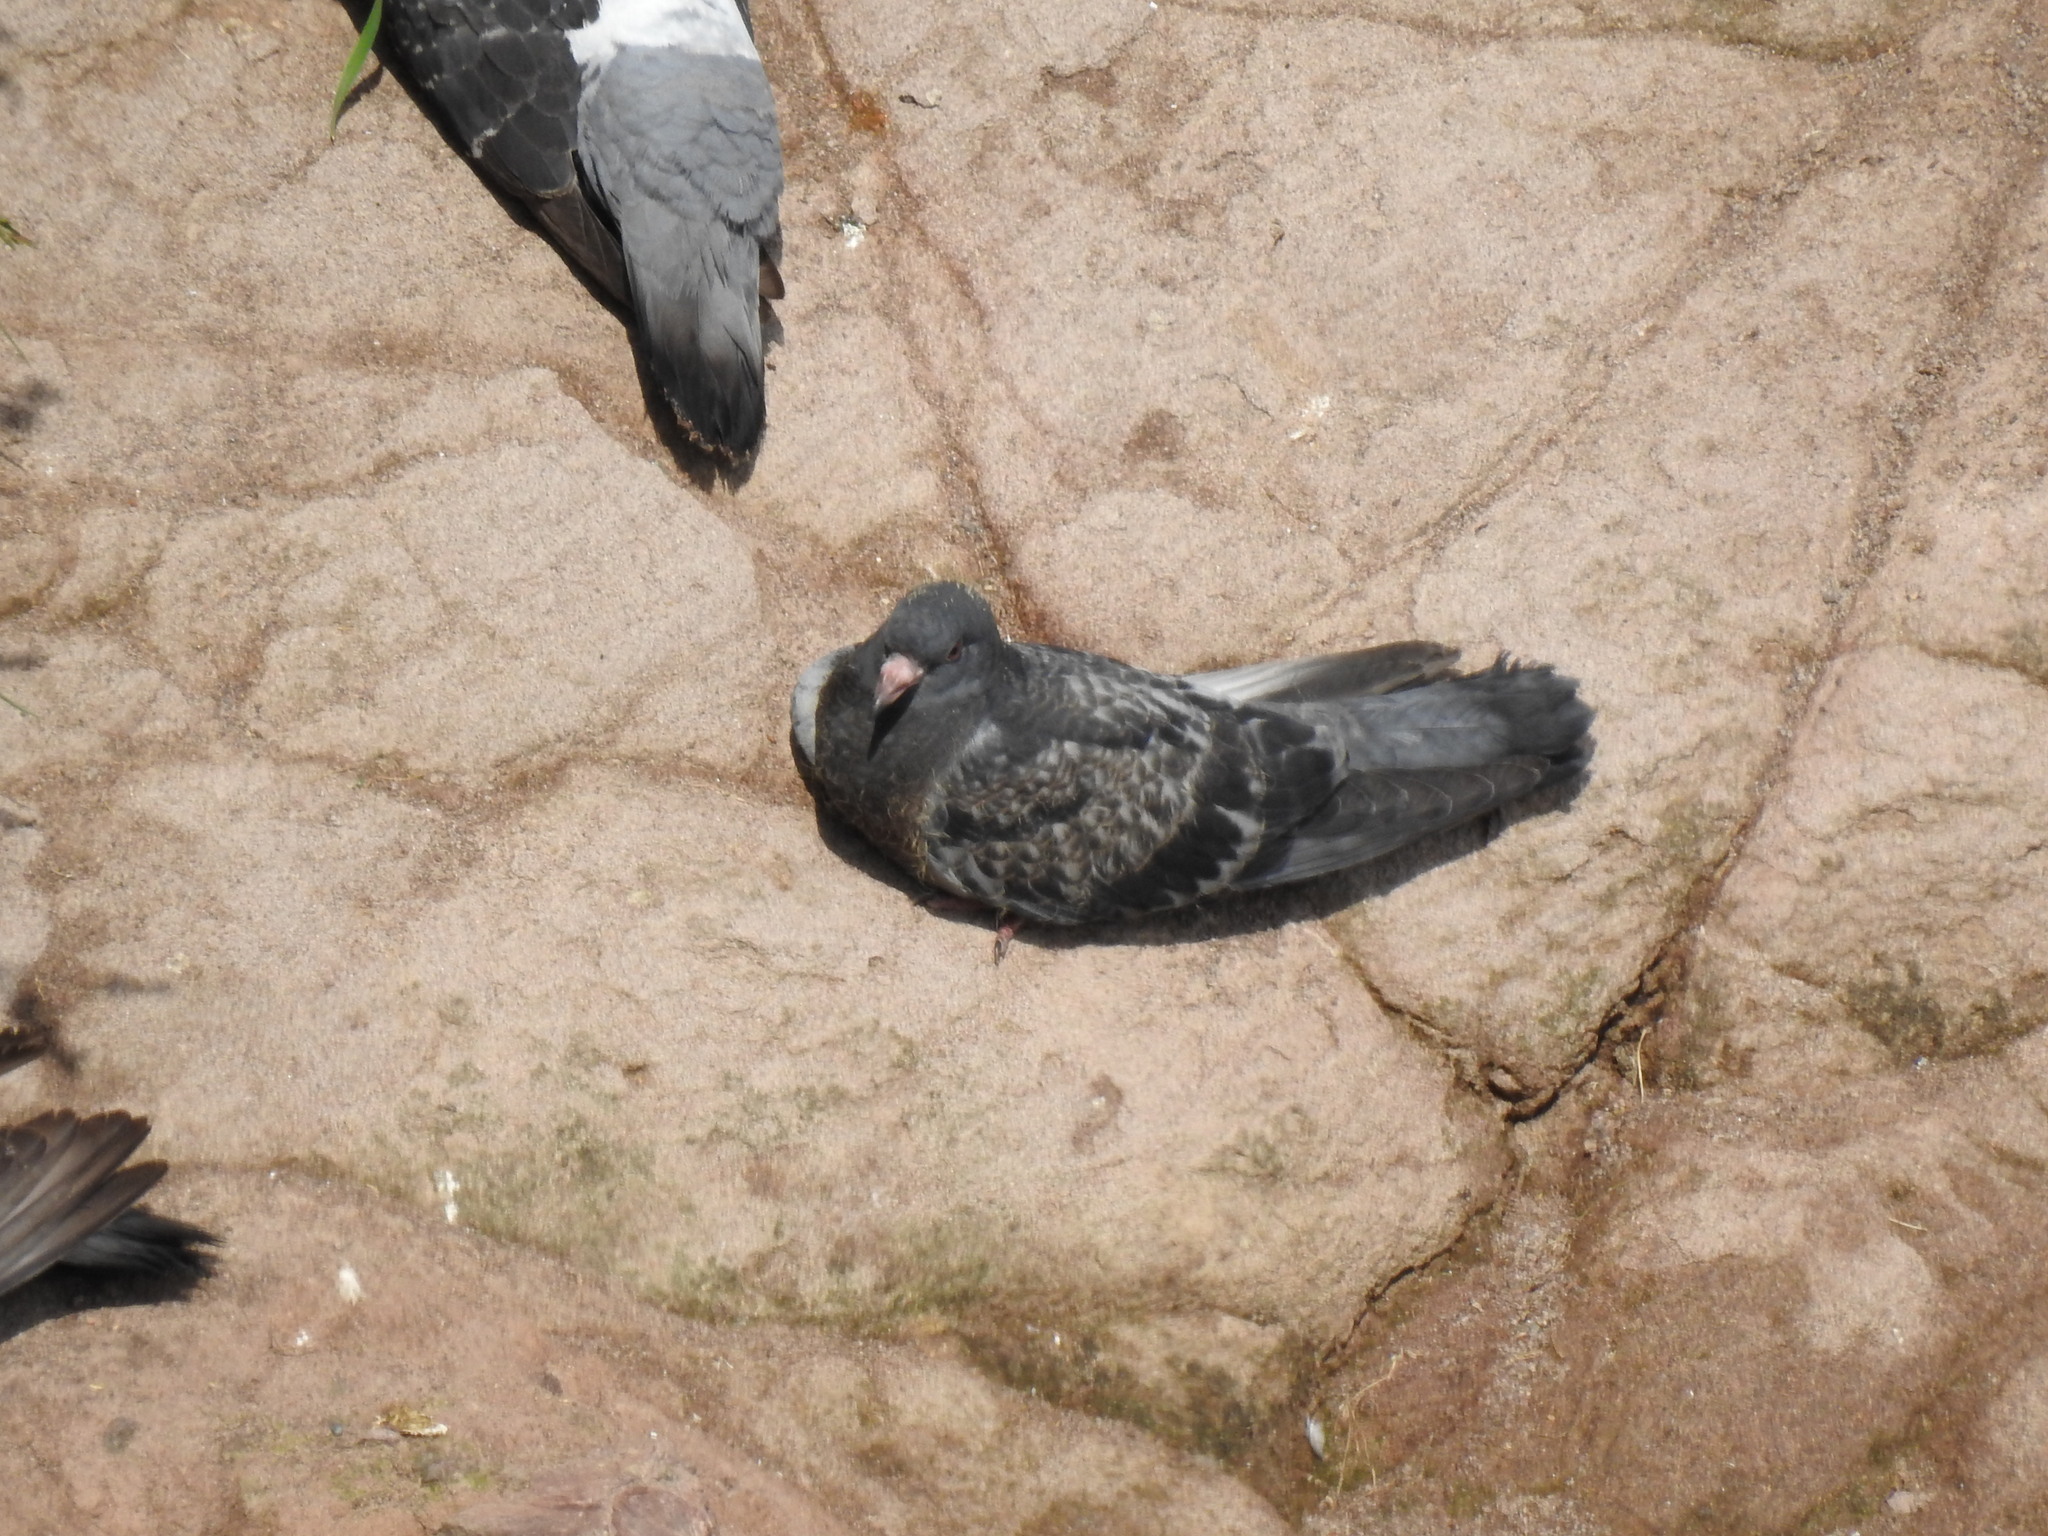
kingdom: Animalia
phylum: Chordata
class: Aves
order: Columbiformes
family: Columbidae
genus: Columba
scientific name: Columba livia
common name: Rock pigeon
